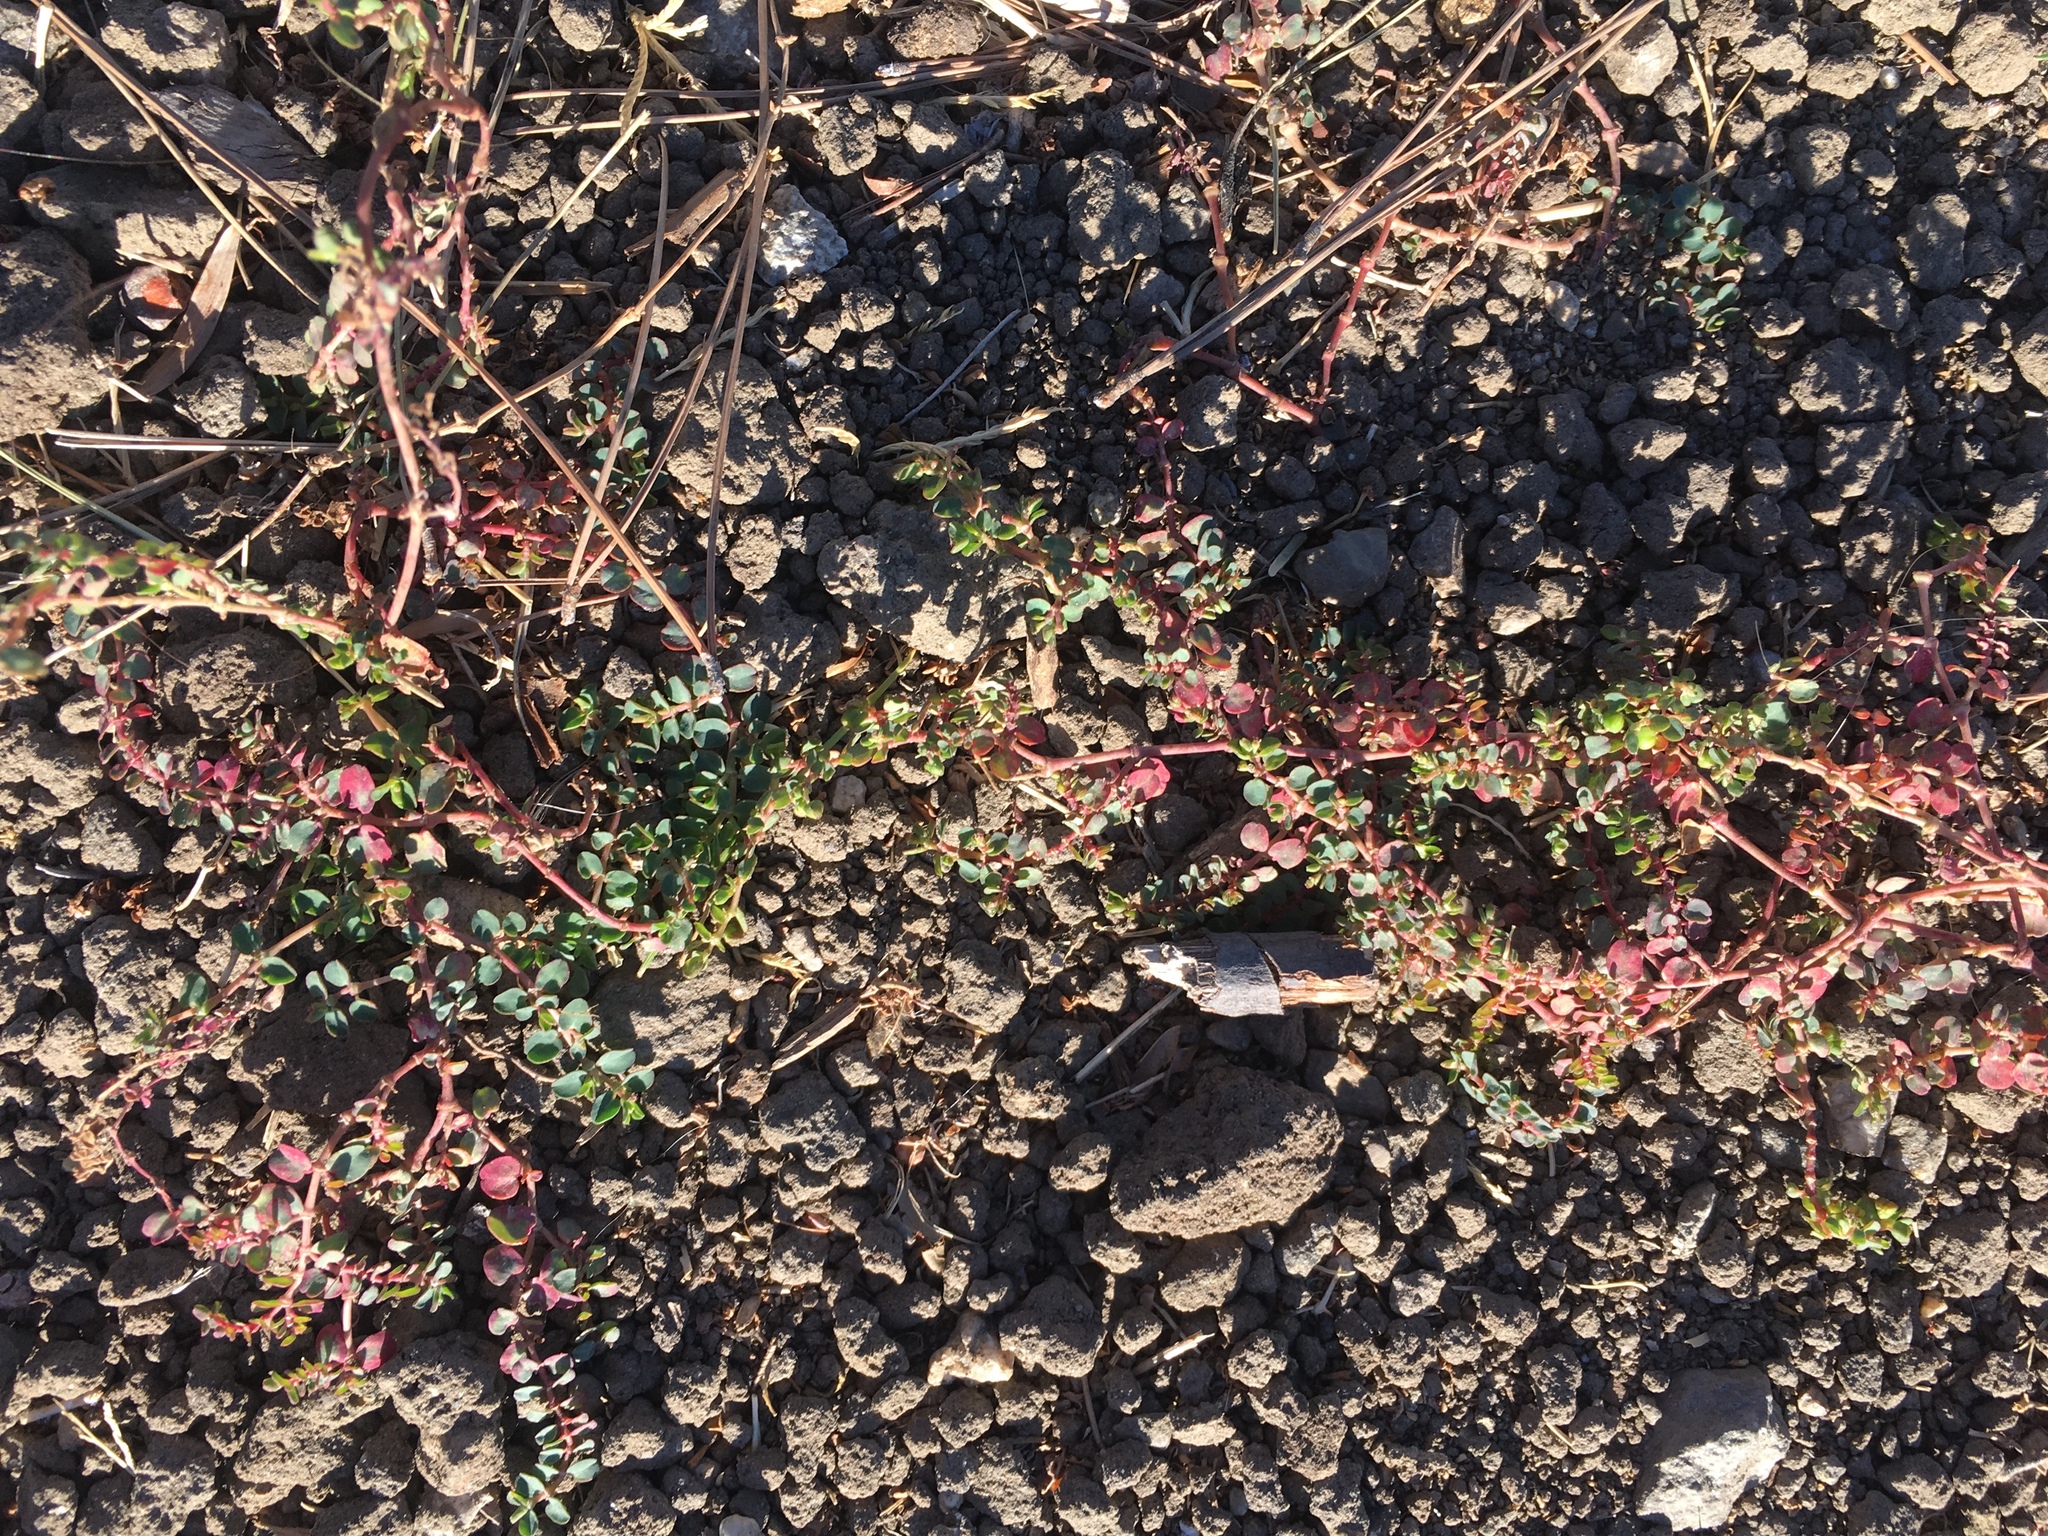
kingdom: Plantae
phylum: Tracheophyta
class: Magnoliopsida
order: Malpighiales
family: Euphorbiaceae
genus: Euphorbia
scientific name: Euphorbia serpens
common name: Matted sandmat
